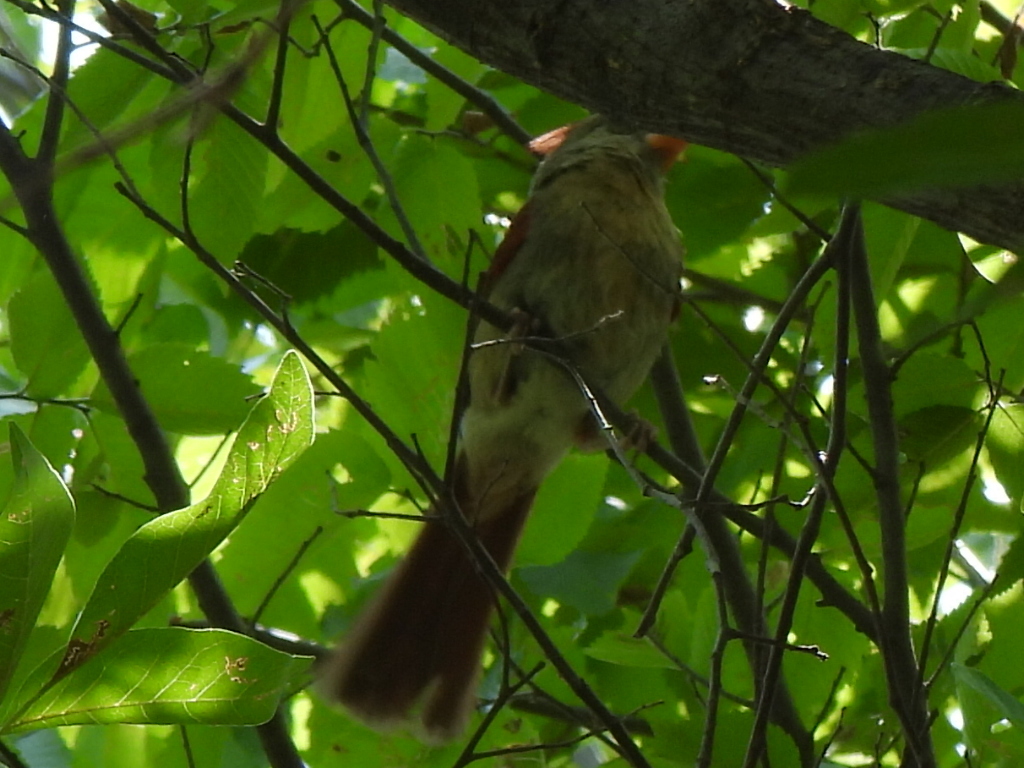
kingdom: Animalia
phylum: Chordata
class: Aves
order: Passeriformes
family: Cardinalidae
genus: Cardinalis
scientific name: Cardinalis cardinalis
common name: Northern cardinal
